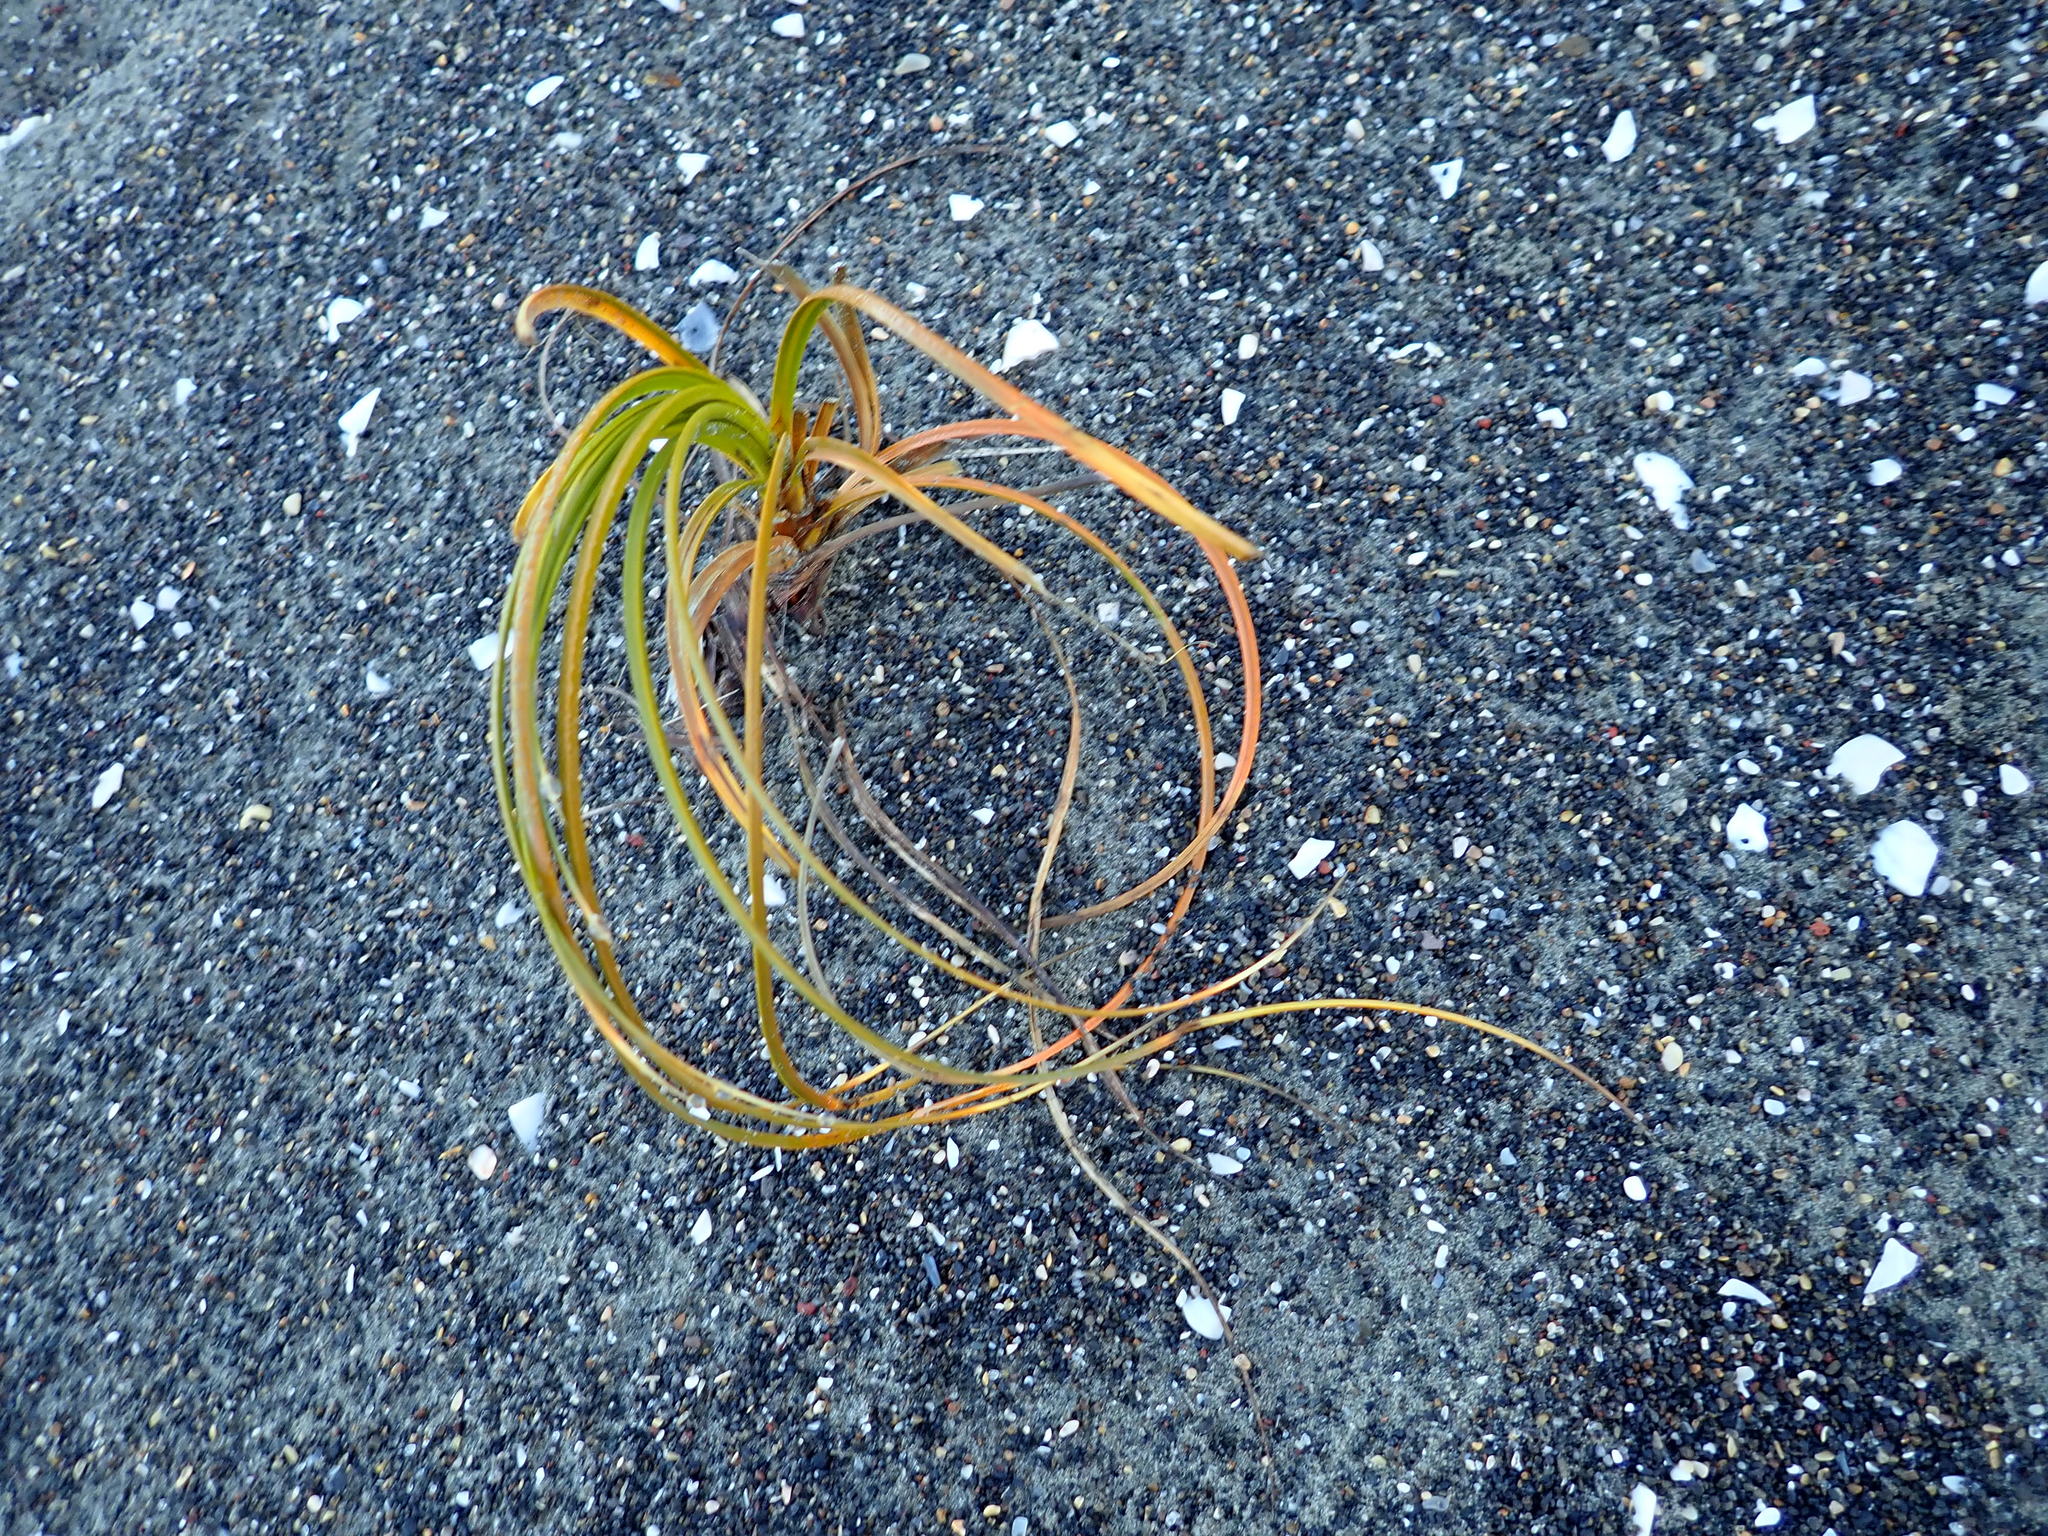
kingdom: Plantae
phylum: Tracheophyta
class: Liliopsida
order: Poales
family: Cyperaceae
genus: Ficinia
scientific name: Ficinia spiralis
